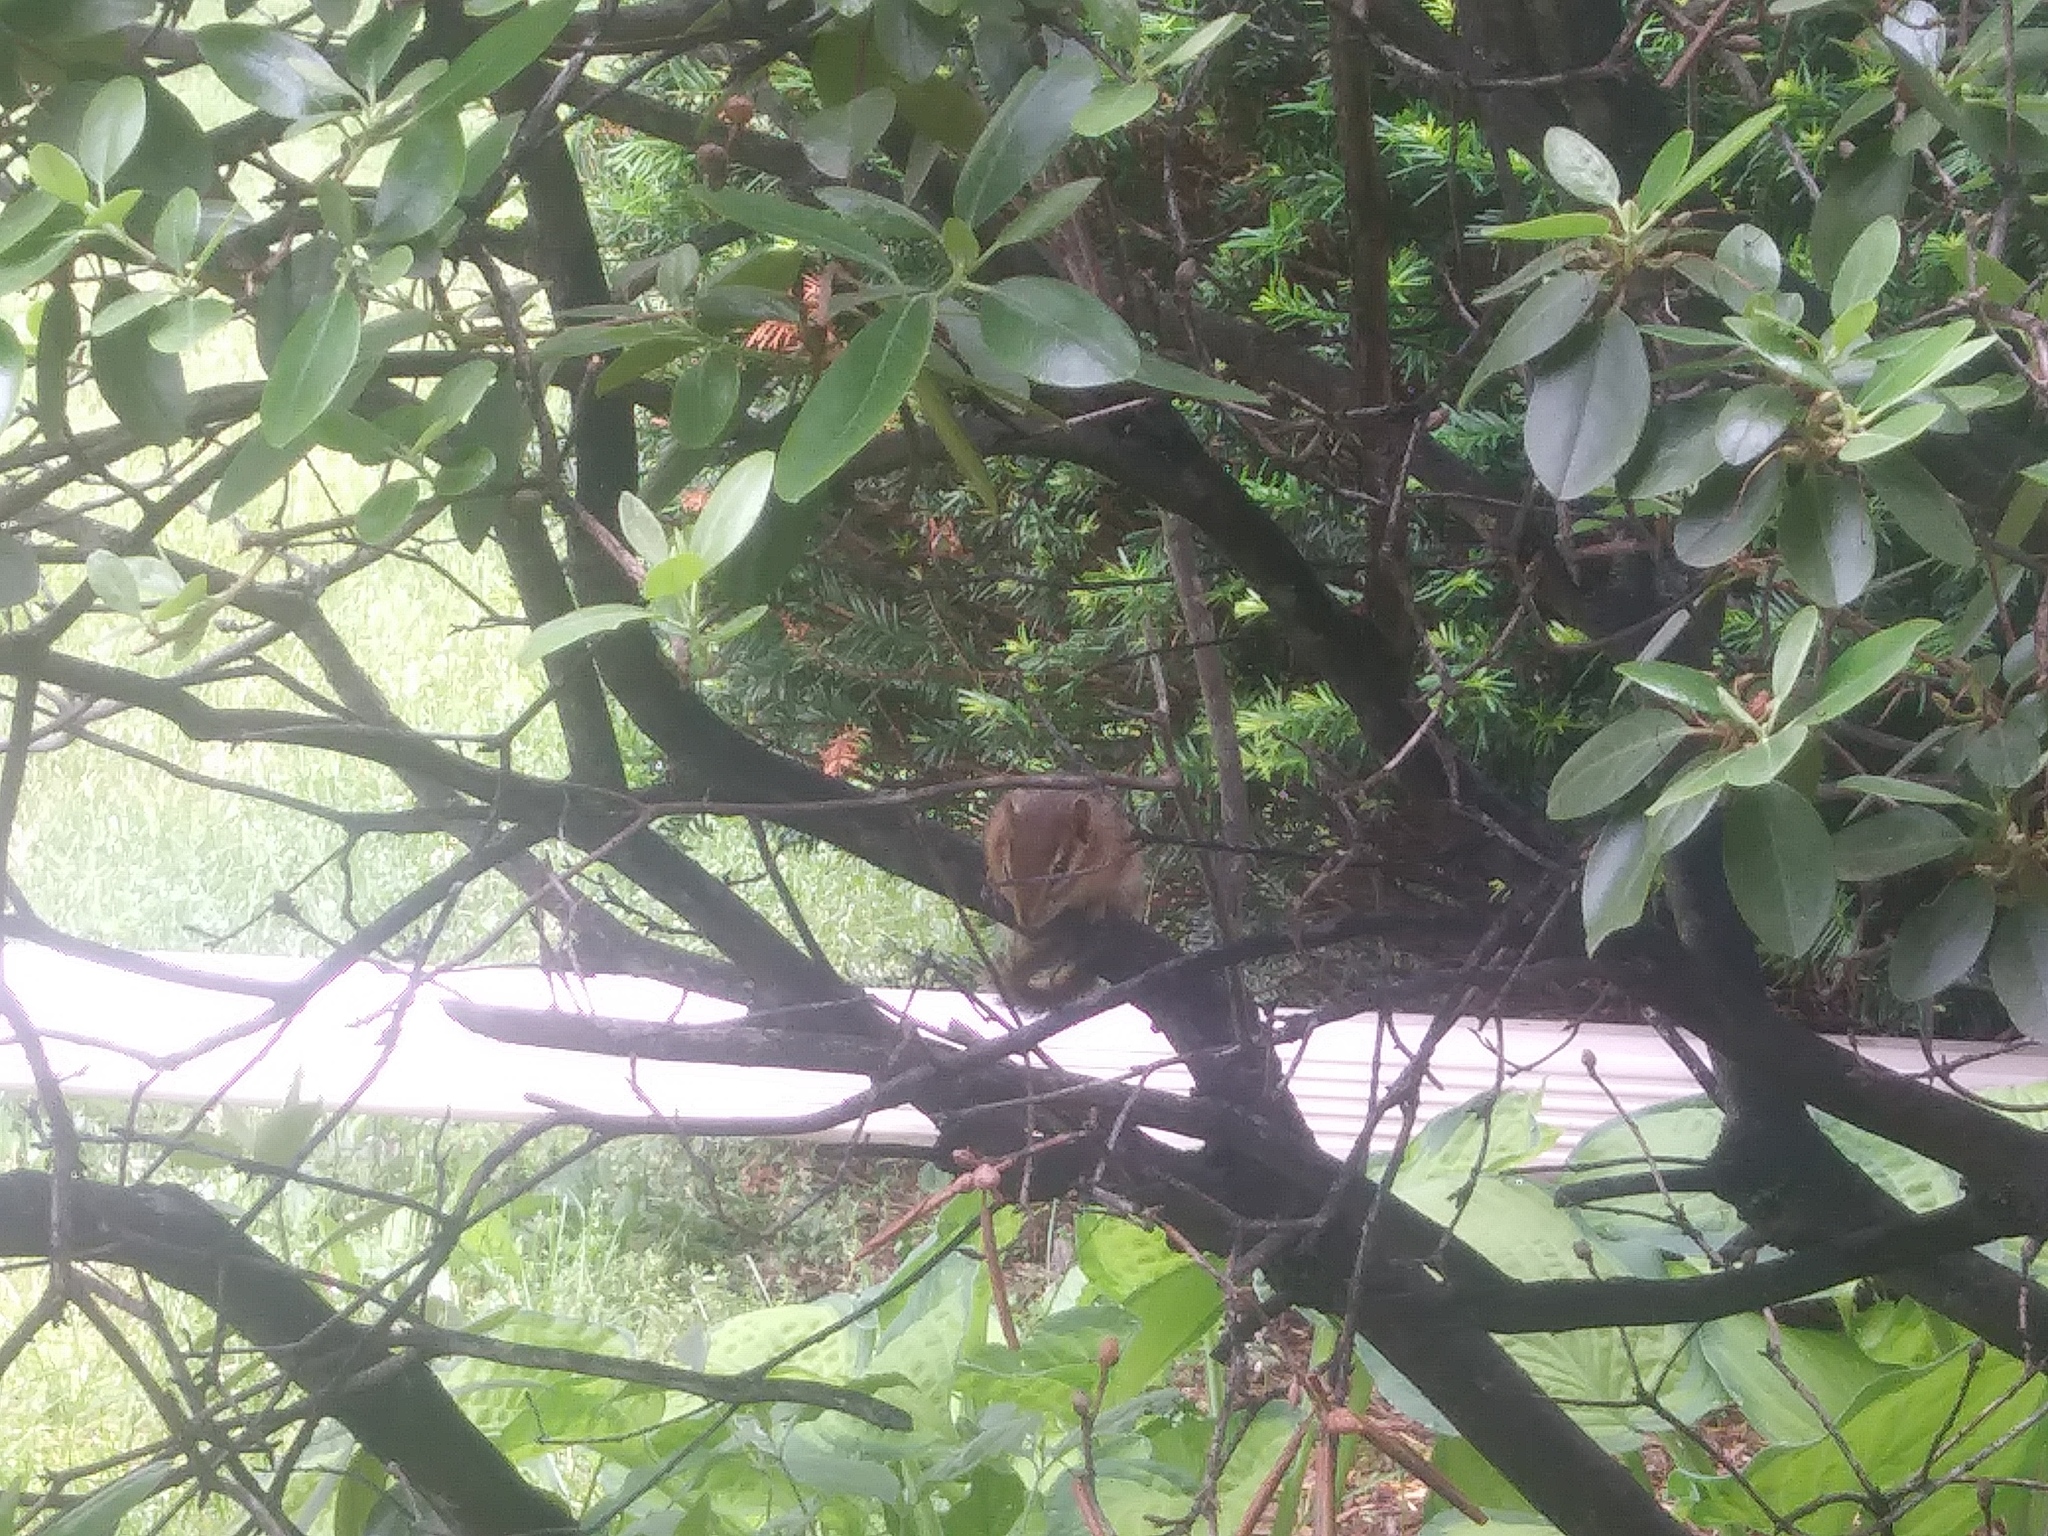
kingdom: Animalia
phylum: Chordata
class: Mammalia
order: Rodentia
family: Sciuridae
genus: Tamias
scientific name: Tamias striatus
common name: Eastern chipmunk
